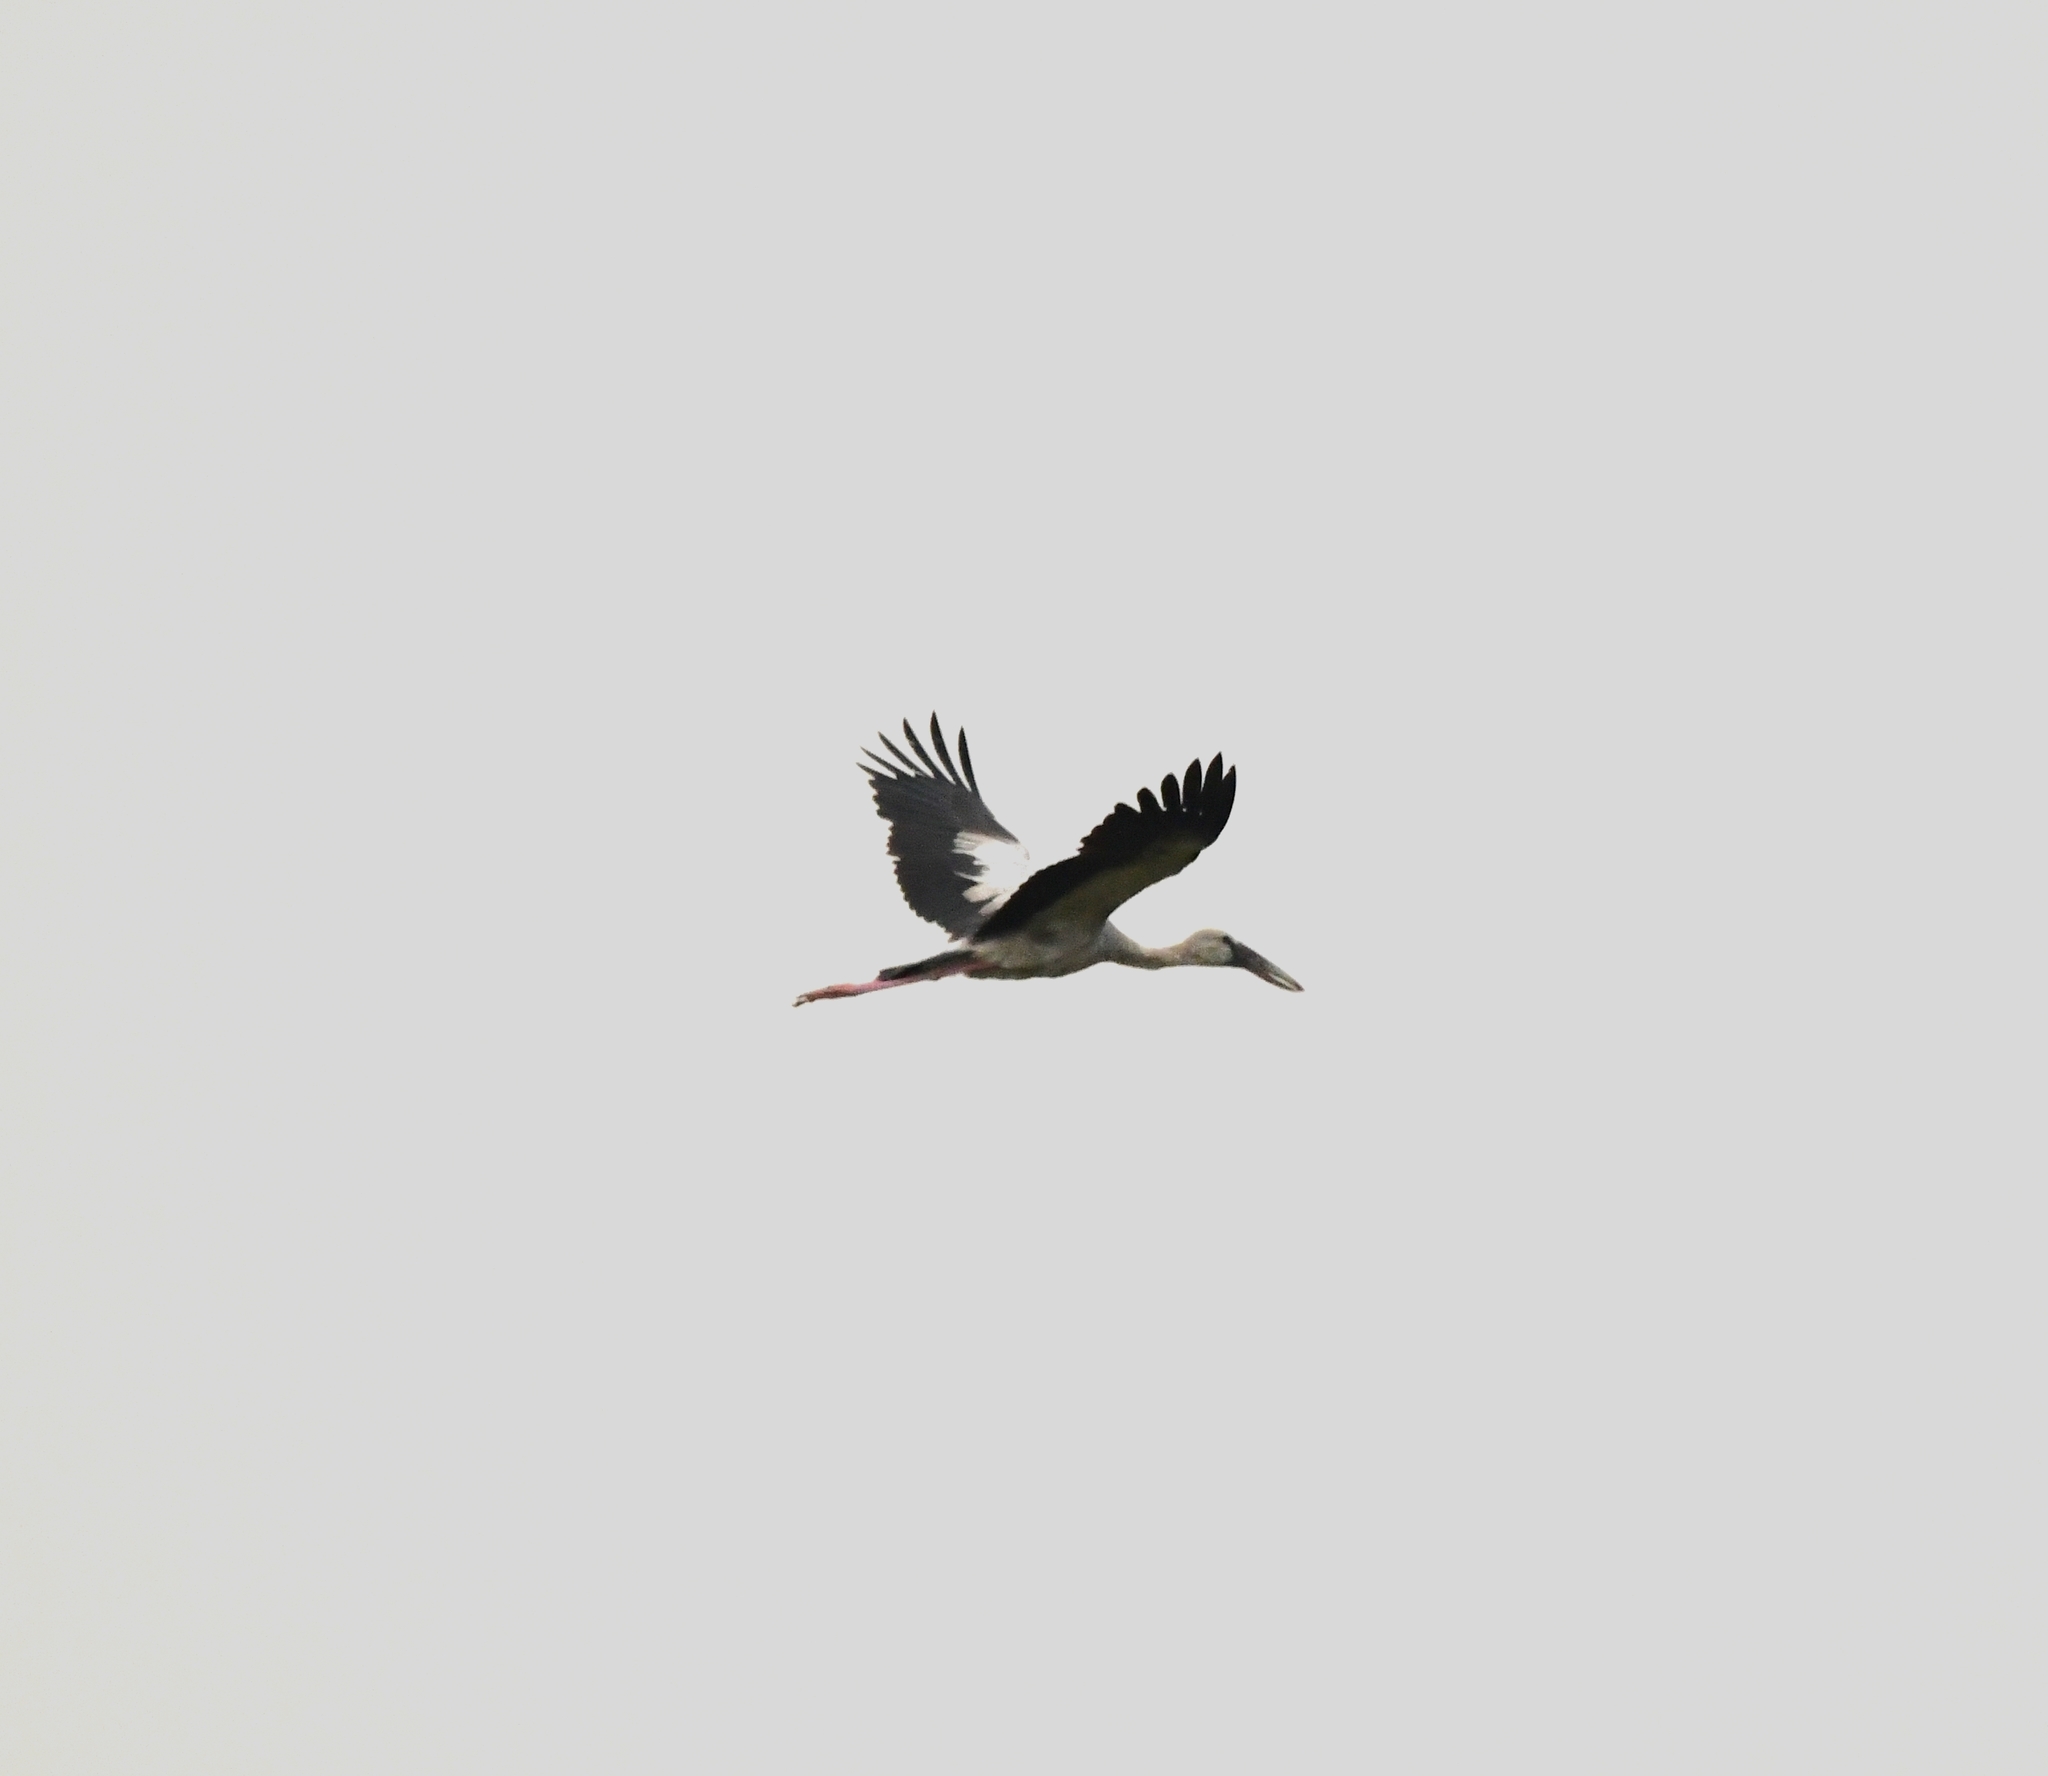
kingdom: Animalia
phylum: Chordata
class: Aves
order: Ciconiiformes
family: Ciconiidae
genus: Anastomus
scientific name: Anastomus oscitans
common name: Asian openbill
